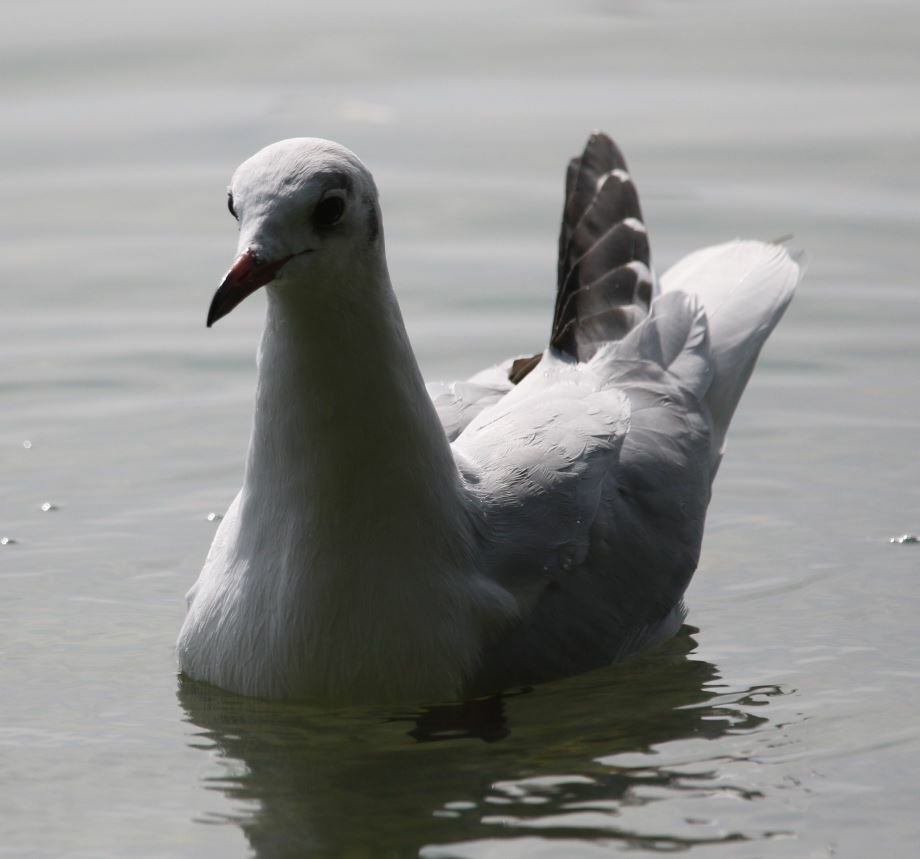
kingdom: Animalia
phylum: Chordata
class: Aves
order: Charadriiformes
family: Laridae
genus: Chroicocephalus
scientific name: Chroicocephalus ridibundus
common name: Black-headed gull
